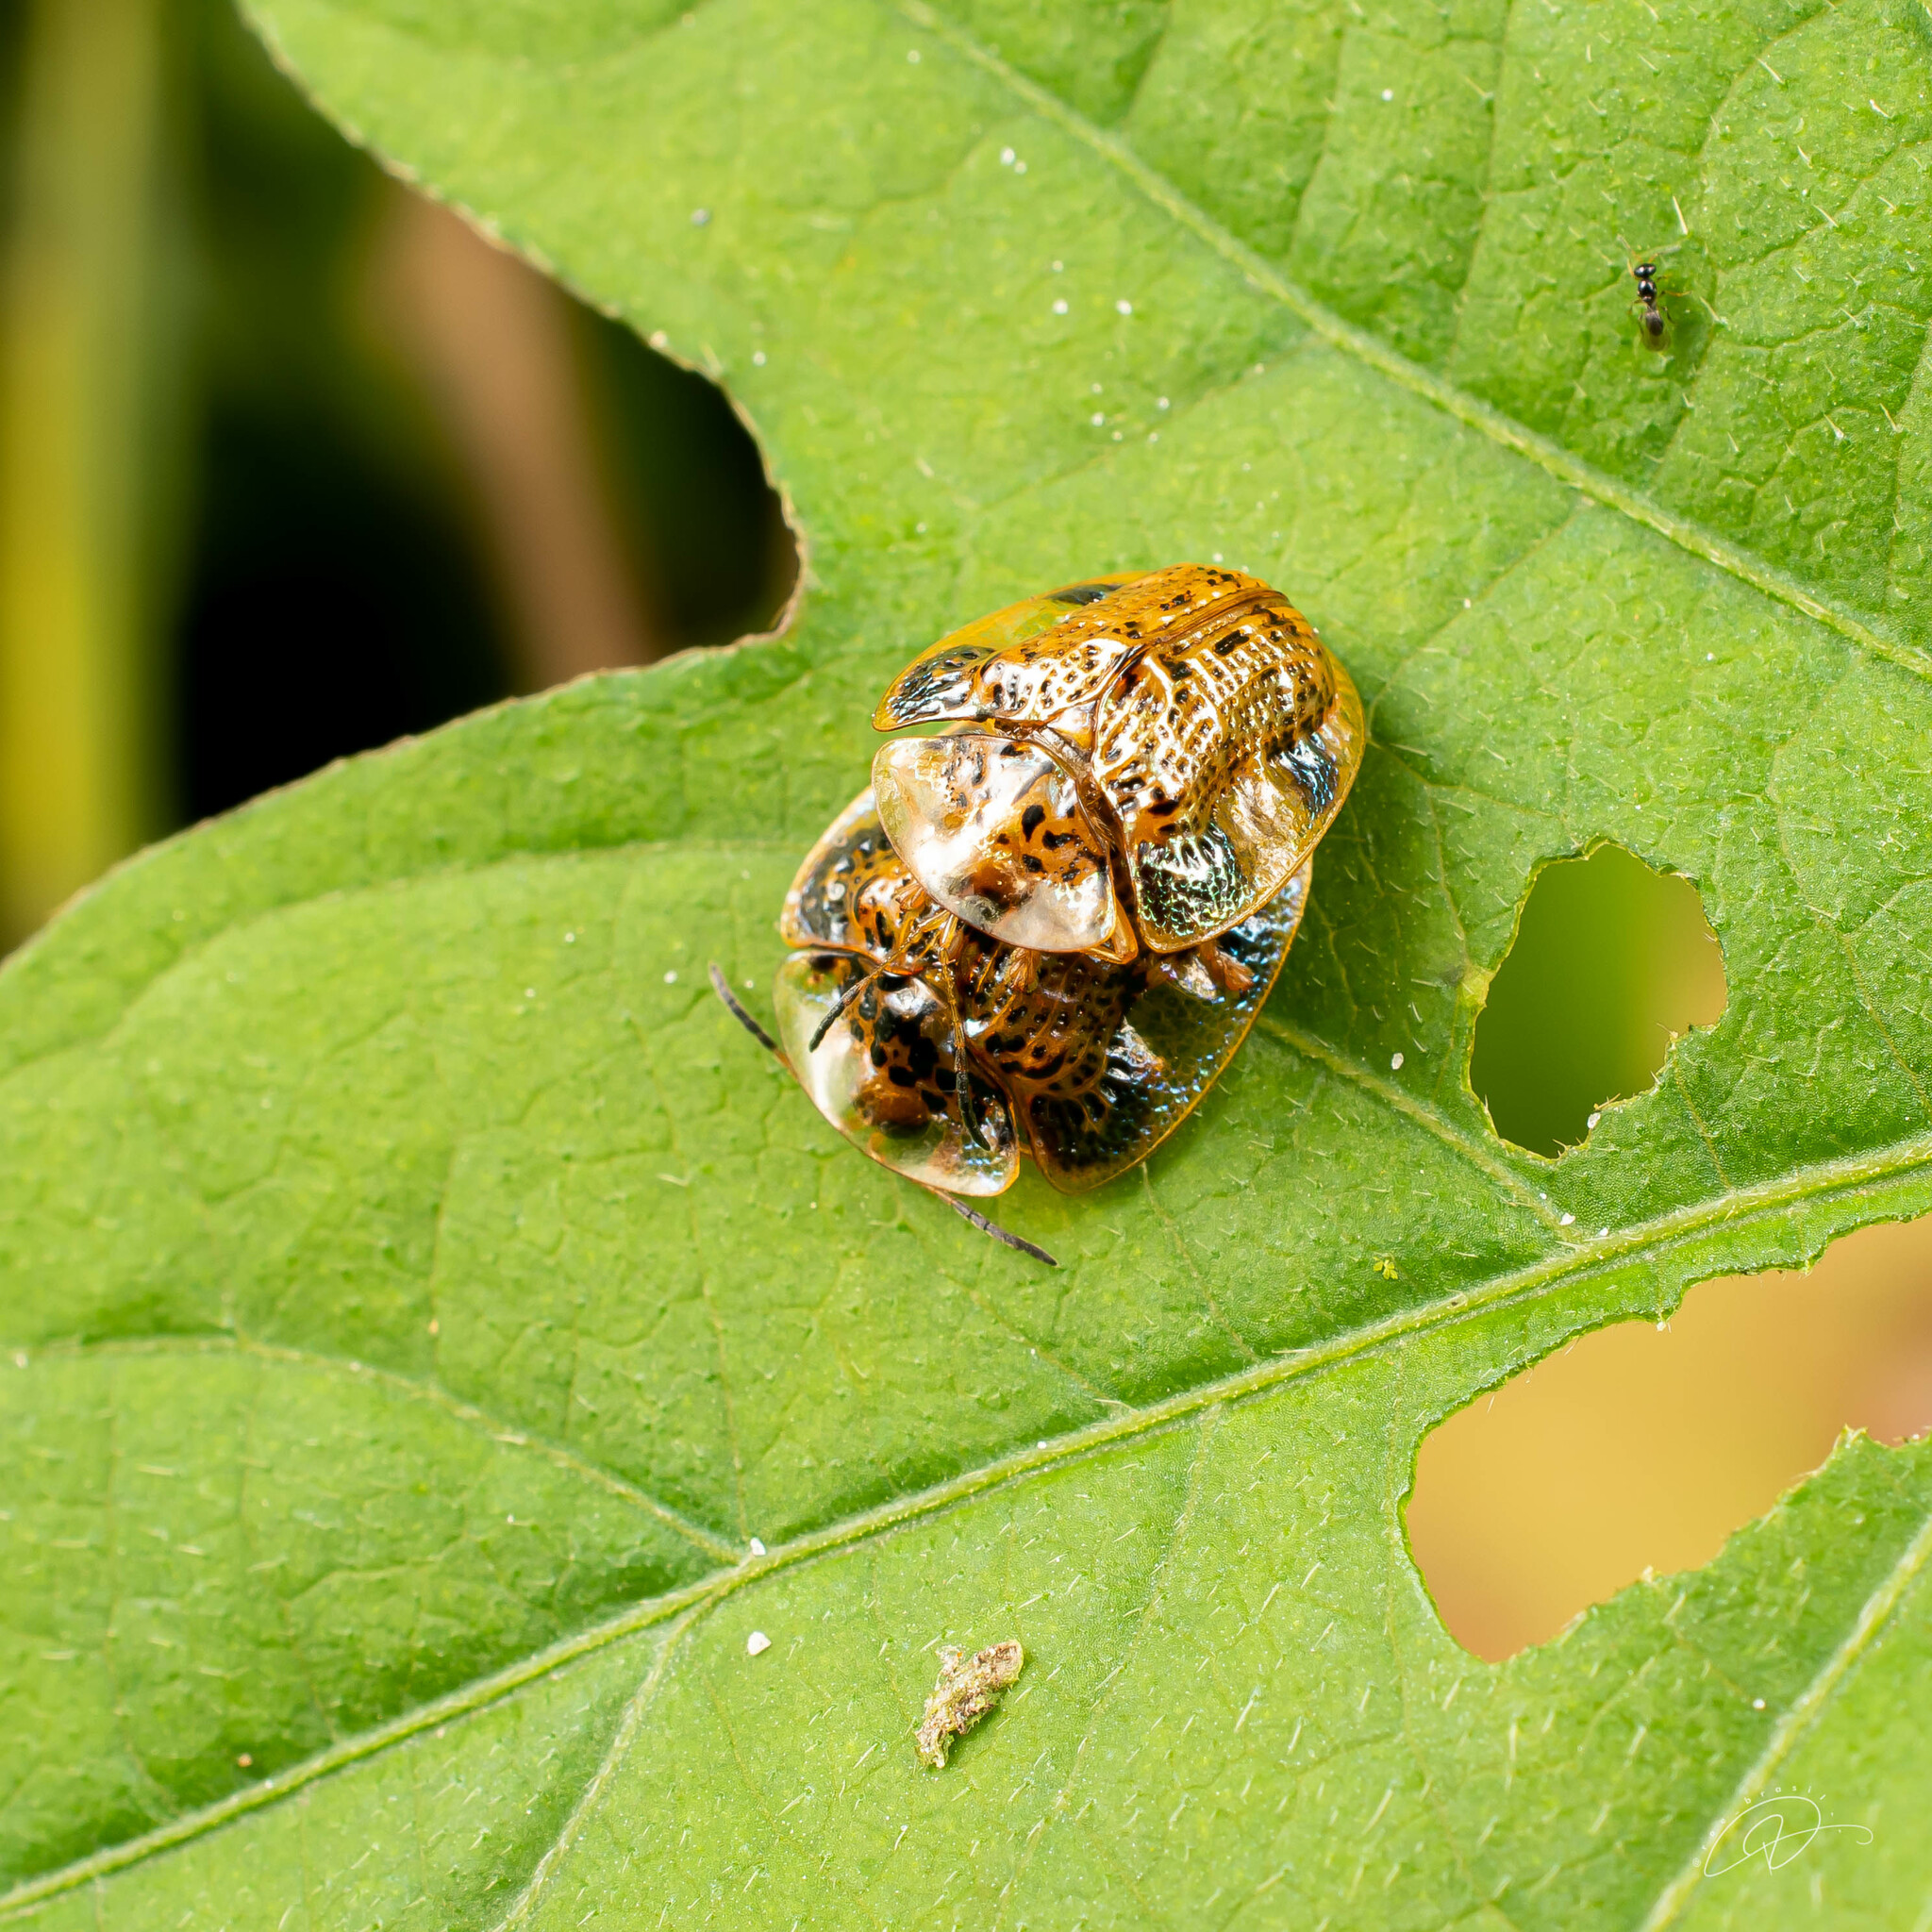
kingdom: Animalia
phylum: Arthropoda
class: Insecta
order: Coleoptera
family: Chrysomelidae
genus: Microctenochira
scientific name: Microctenochira aciculata
